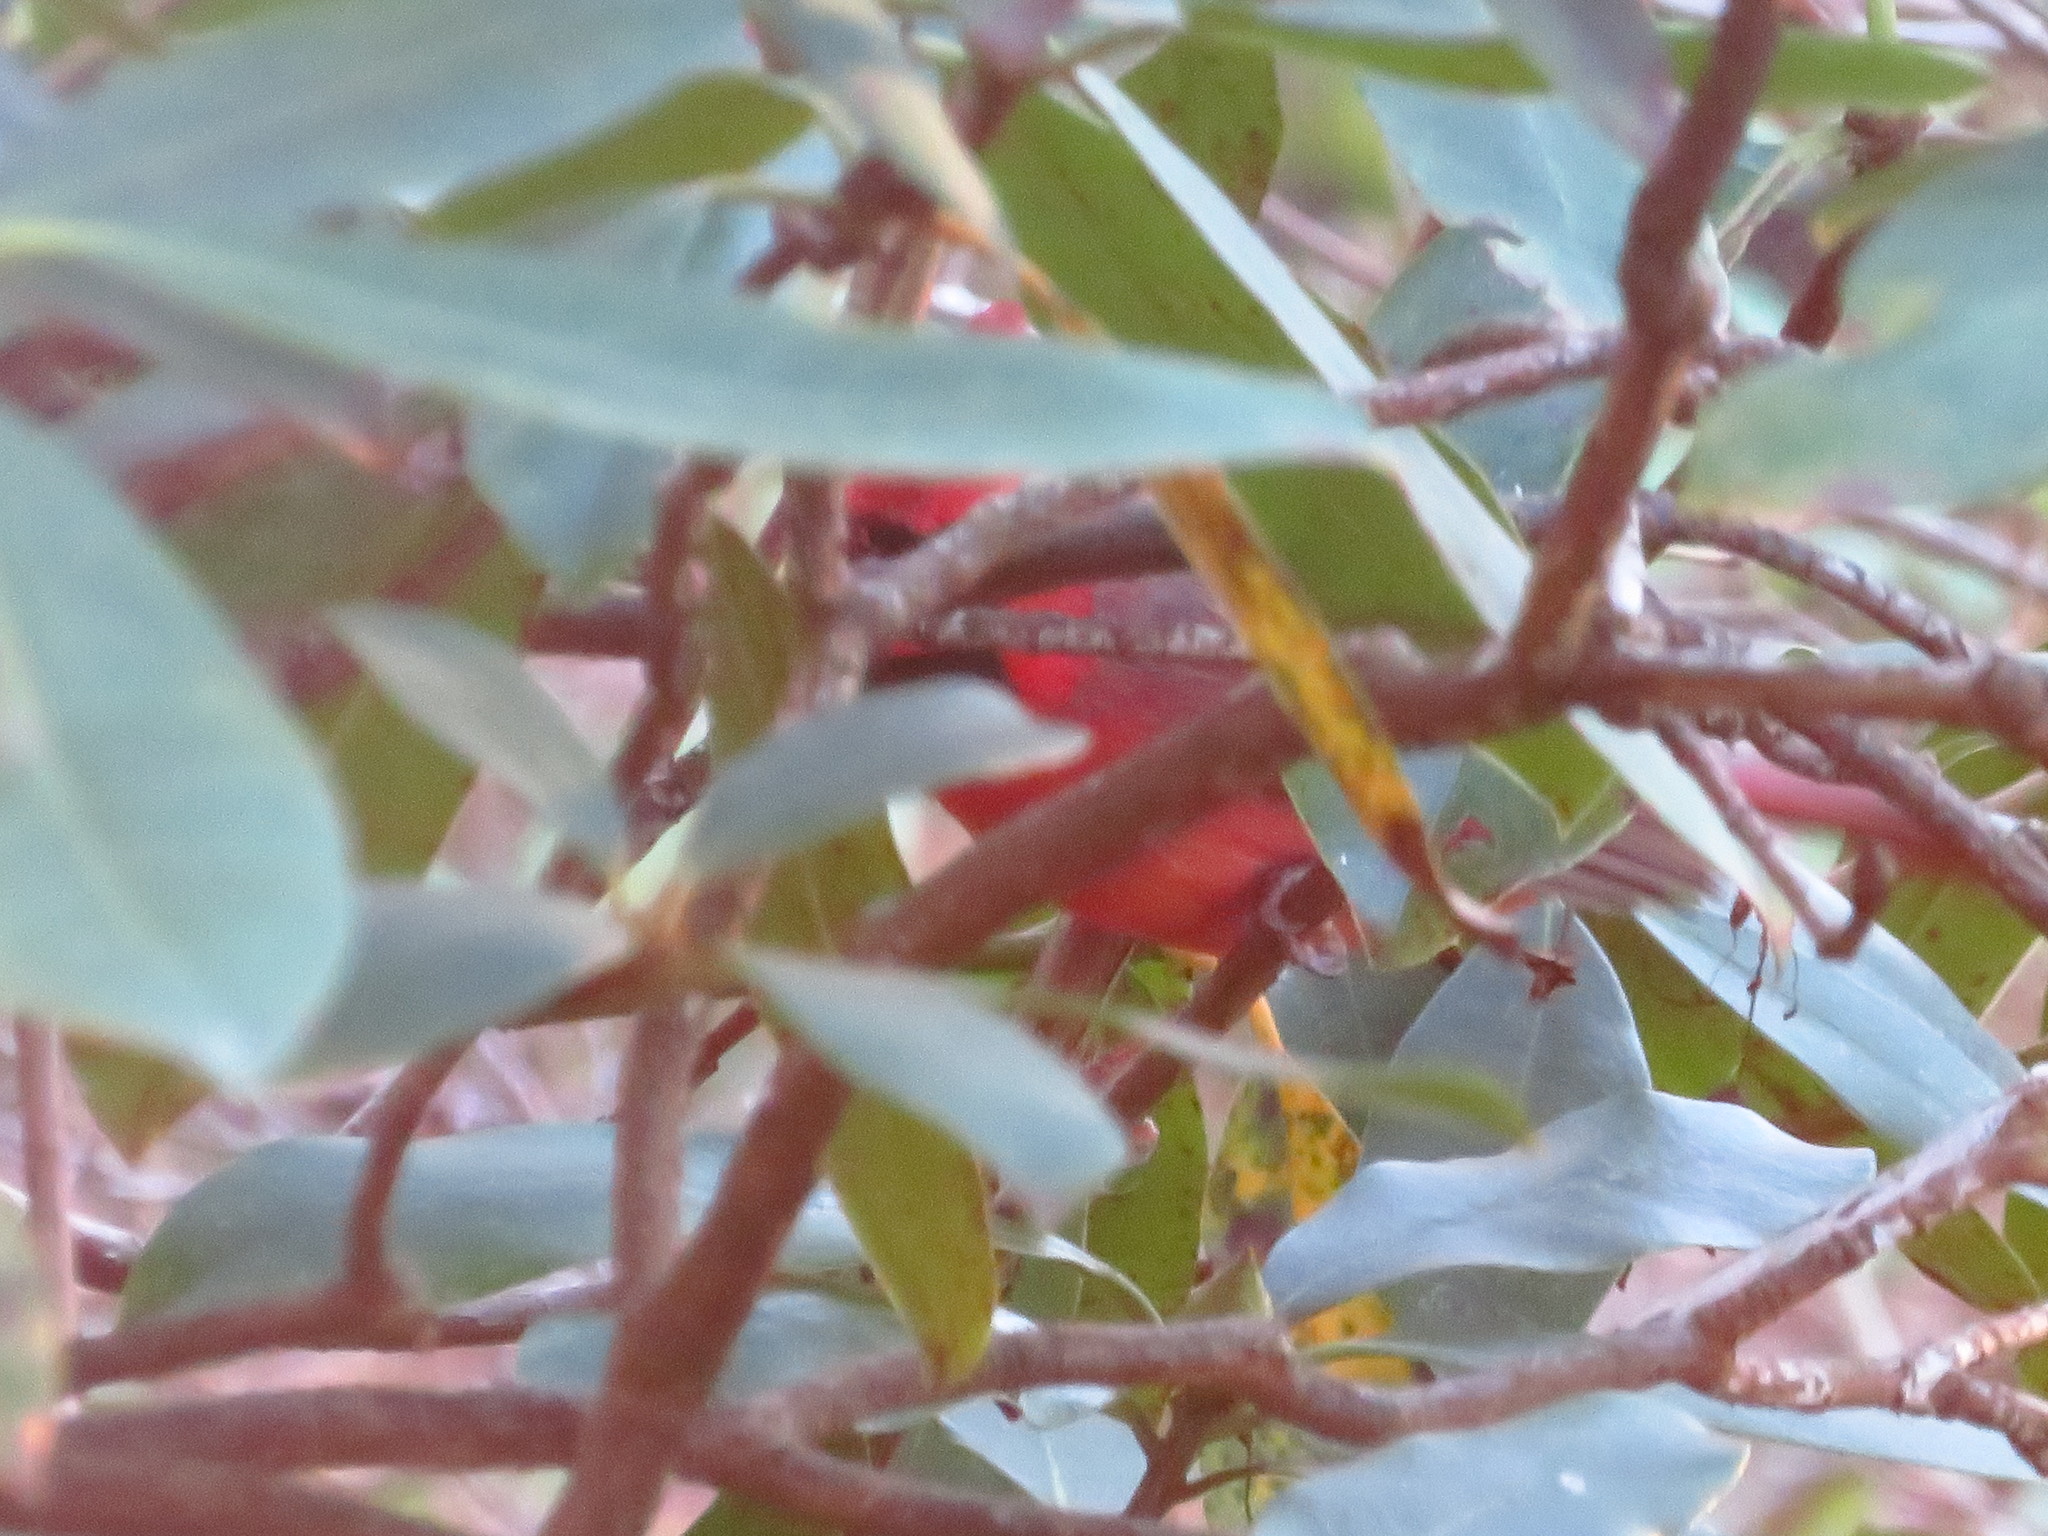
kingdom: Animalia
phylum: Chordata
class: Aves
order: Passeriformes
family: Cardinalidae
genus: Cardinalis
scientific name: Cardinalis cardinalis
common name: Northern cardinal
